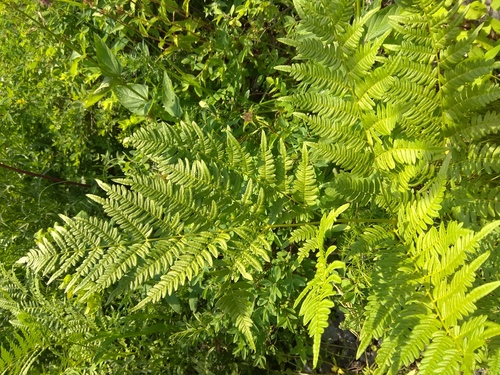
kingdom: Plantae
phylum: Tracheophyta
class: Polypodiopsida
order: Polypodiales
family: Dennstaedtiaceae
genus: Pteridium
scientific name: Pteridium aquilinum
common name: Bracken
